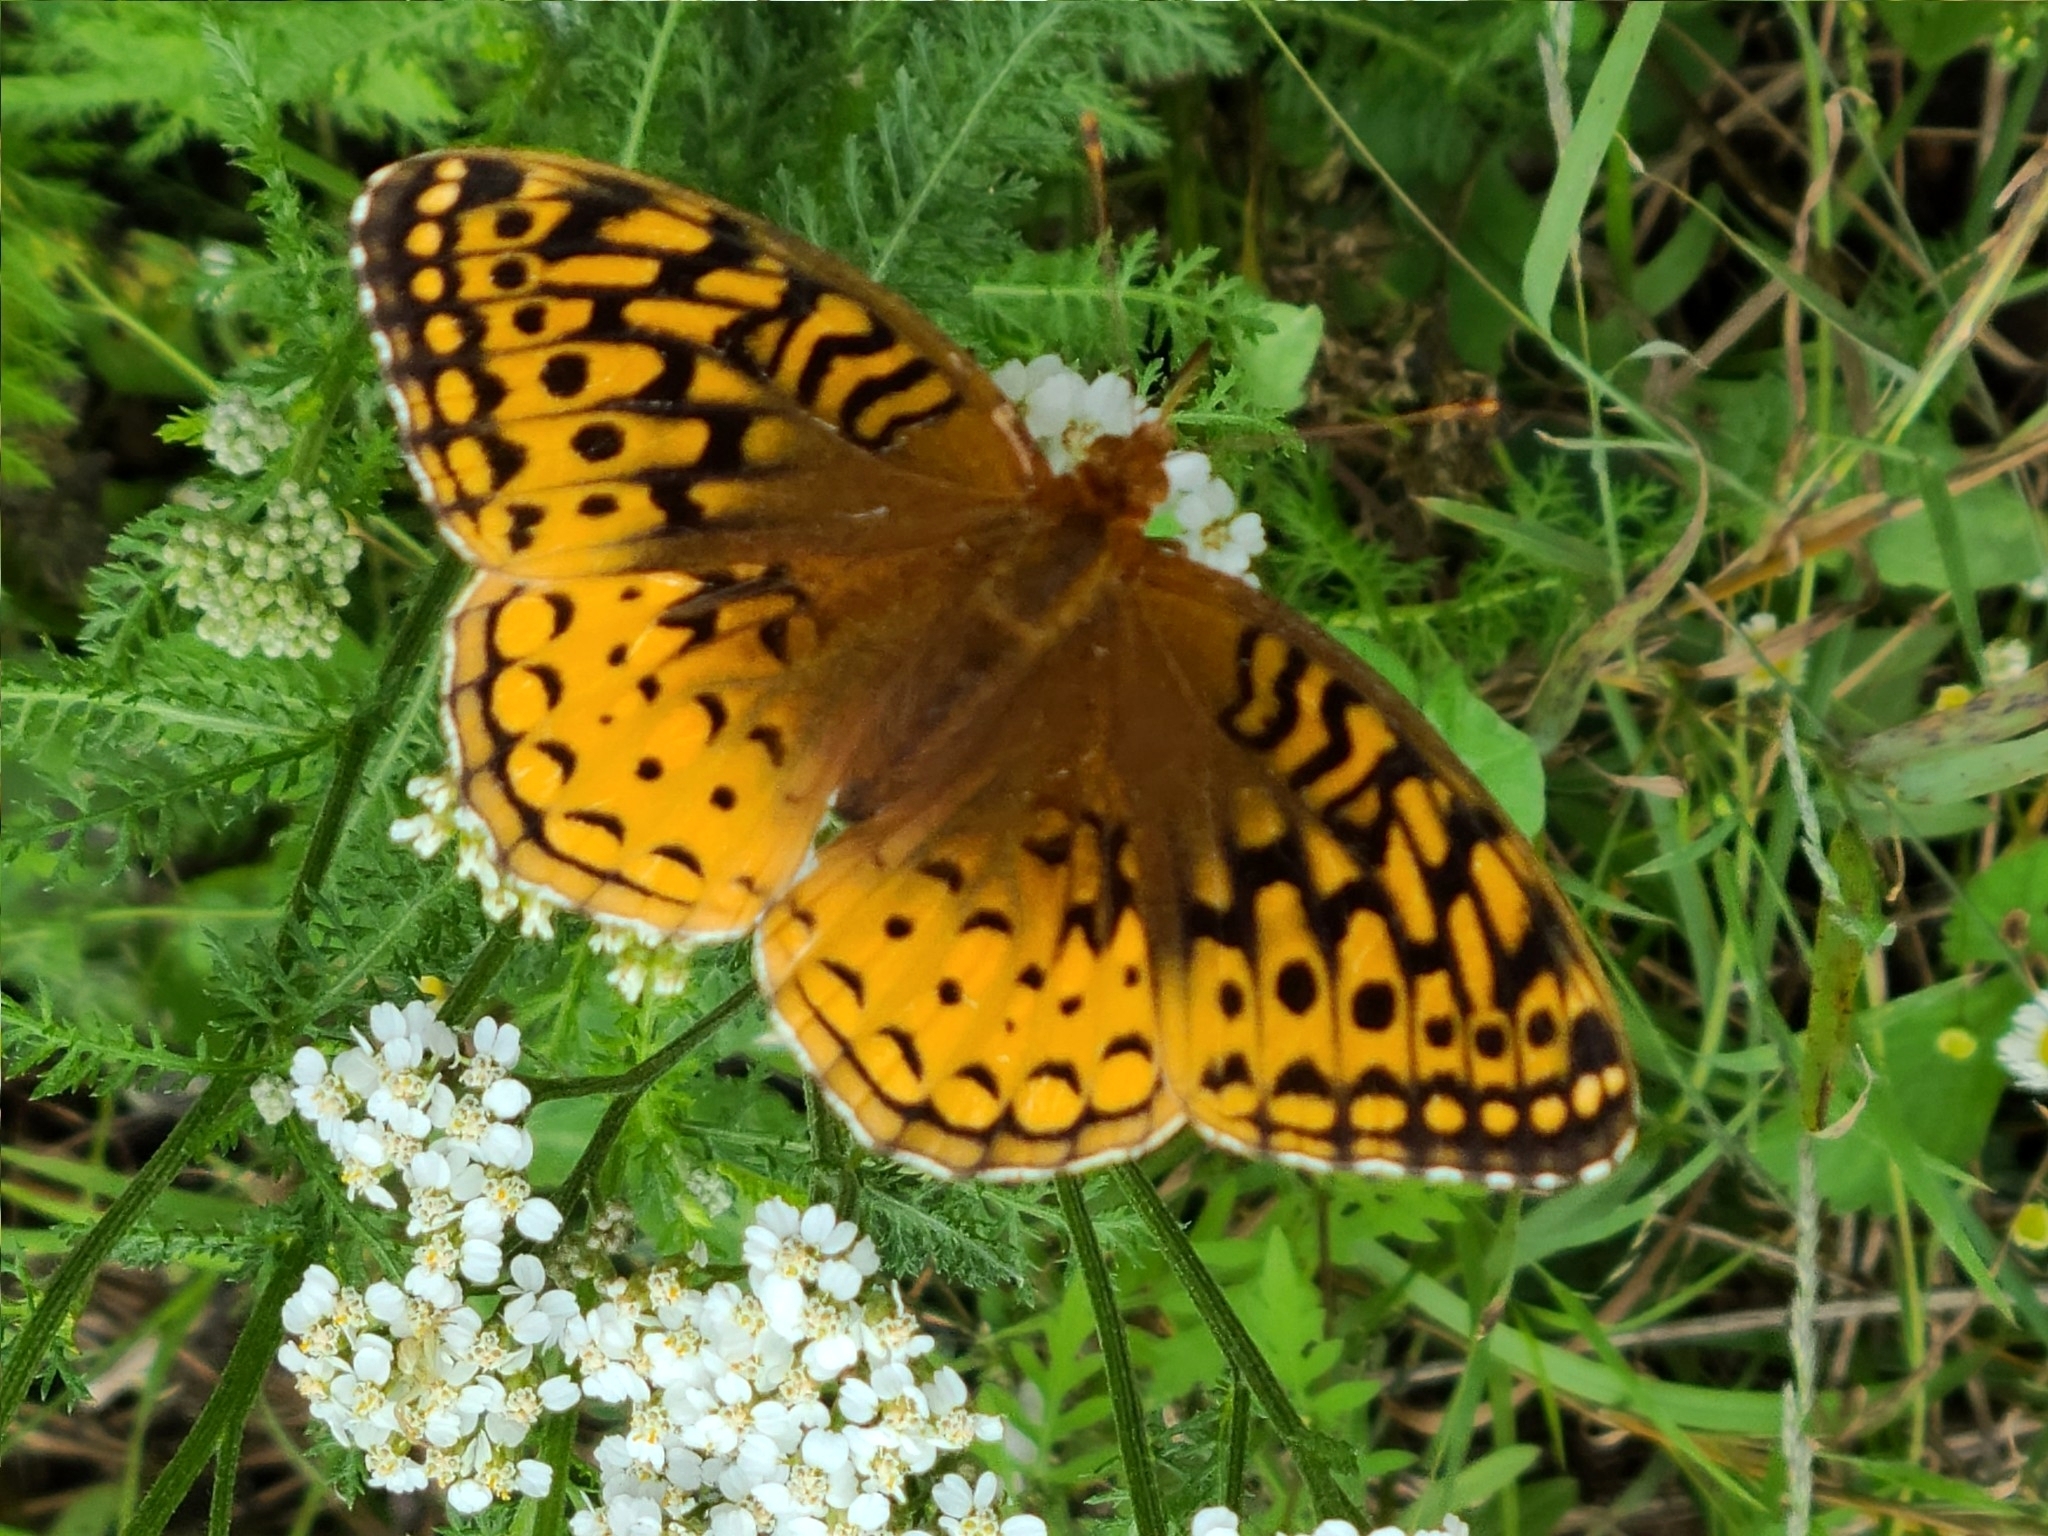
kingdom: Animalia
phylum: Arthropoda
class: Insecta
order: Lepidoptera
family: Nymphalidae
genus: Speyeria
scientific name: Speyeria cybele
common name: Great spangled fritillary
